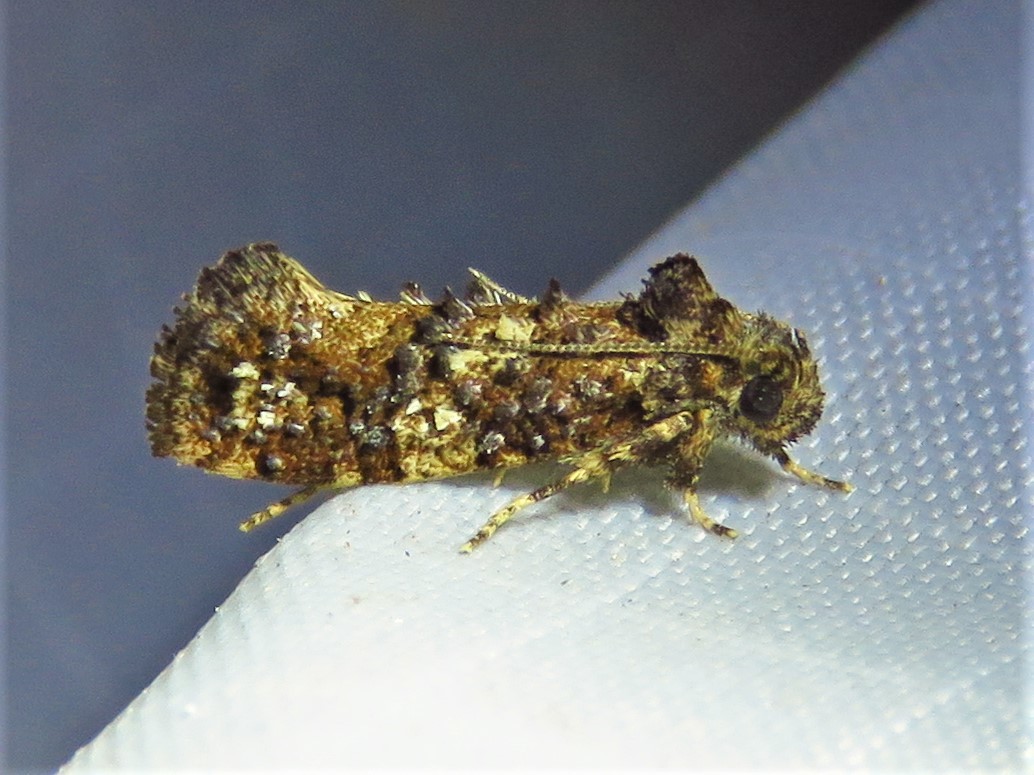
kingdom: Animalia
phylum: Arthropoda
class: Insecta
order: Lepidoptera
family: Tineidae
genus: Acrolophus
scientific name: Acrolophus cressoni
